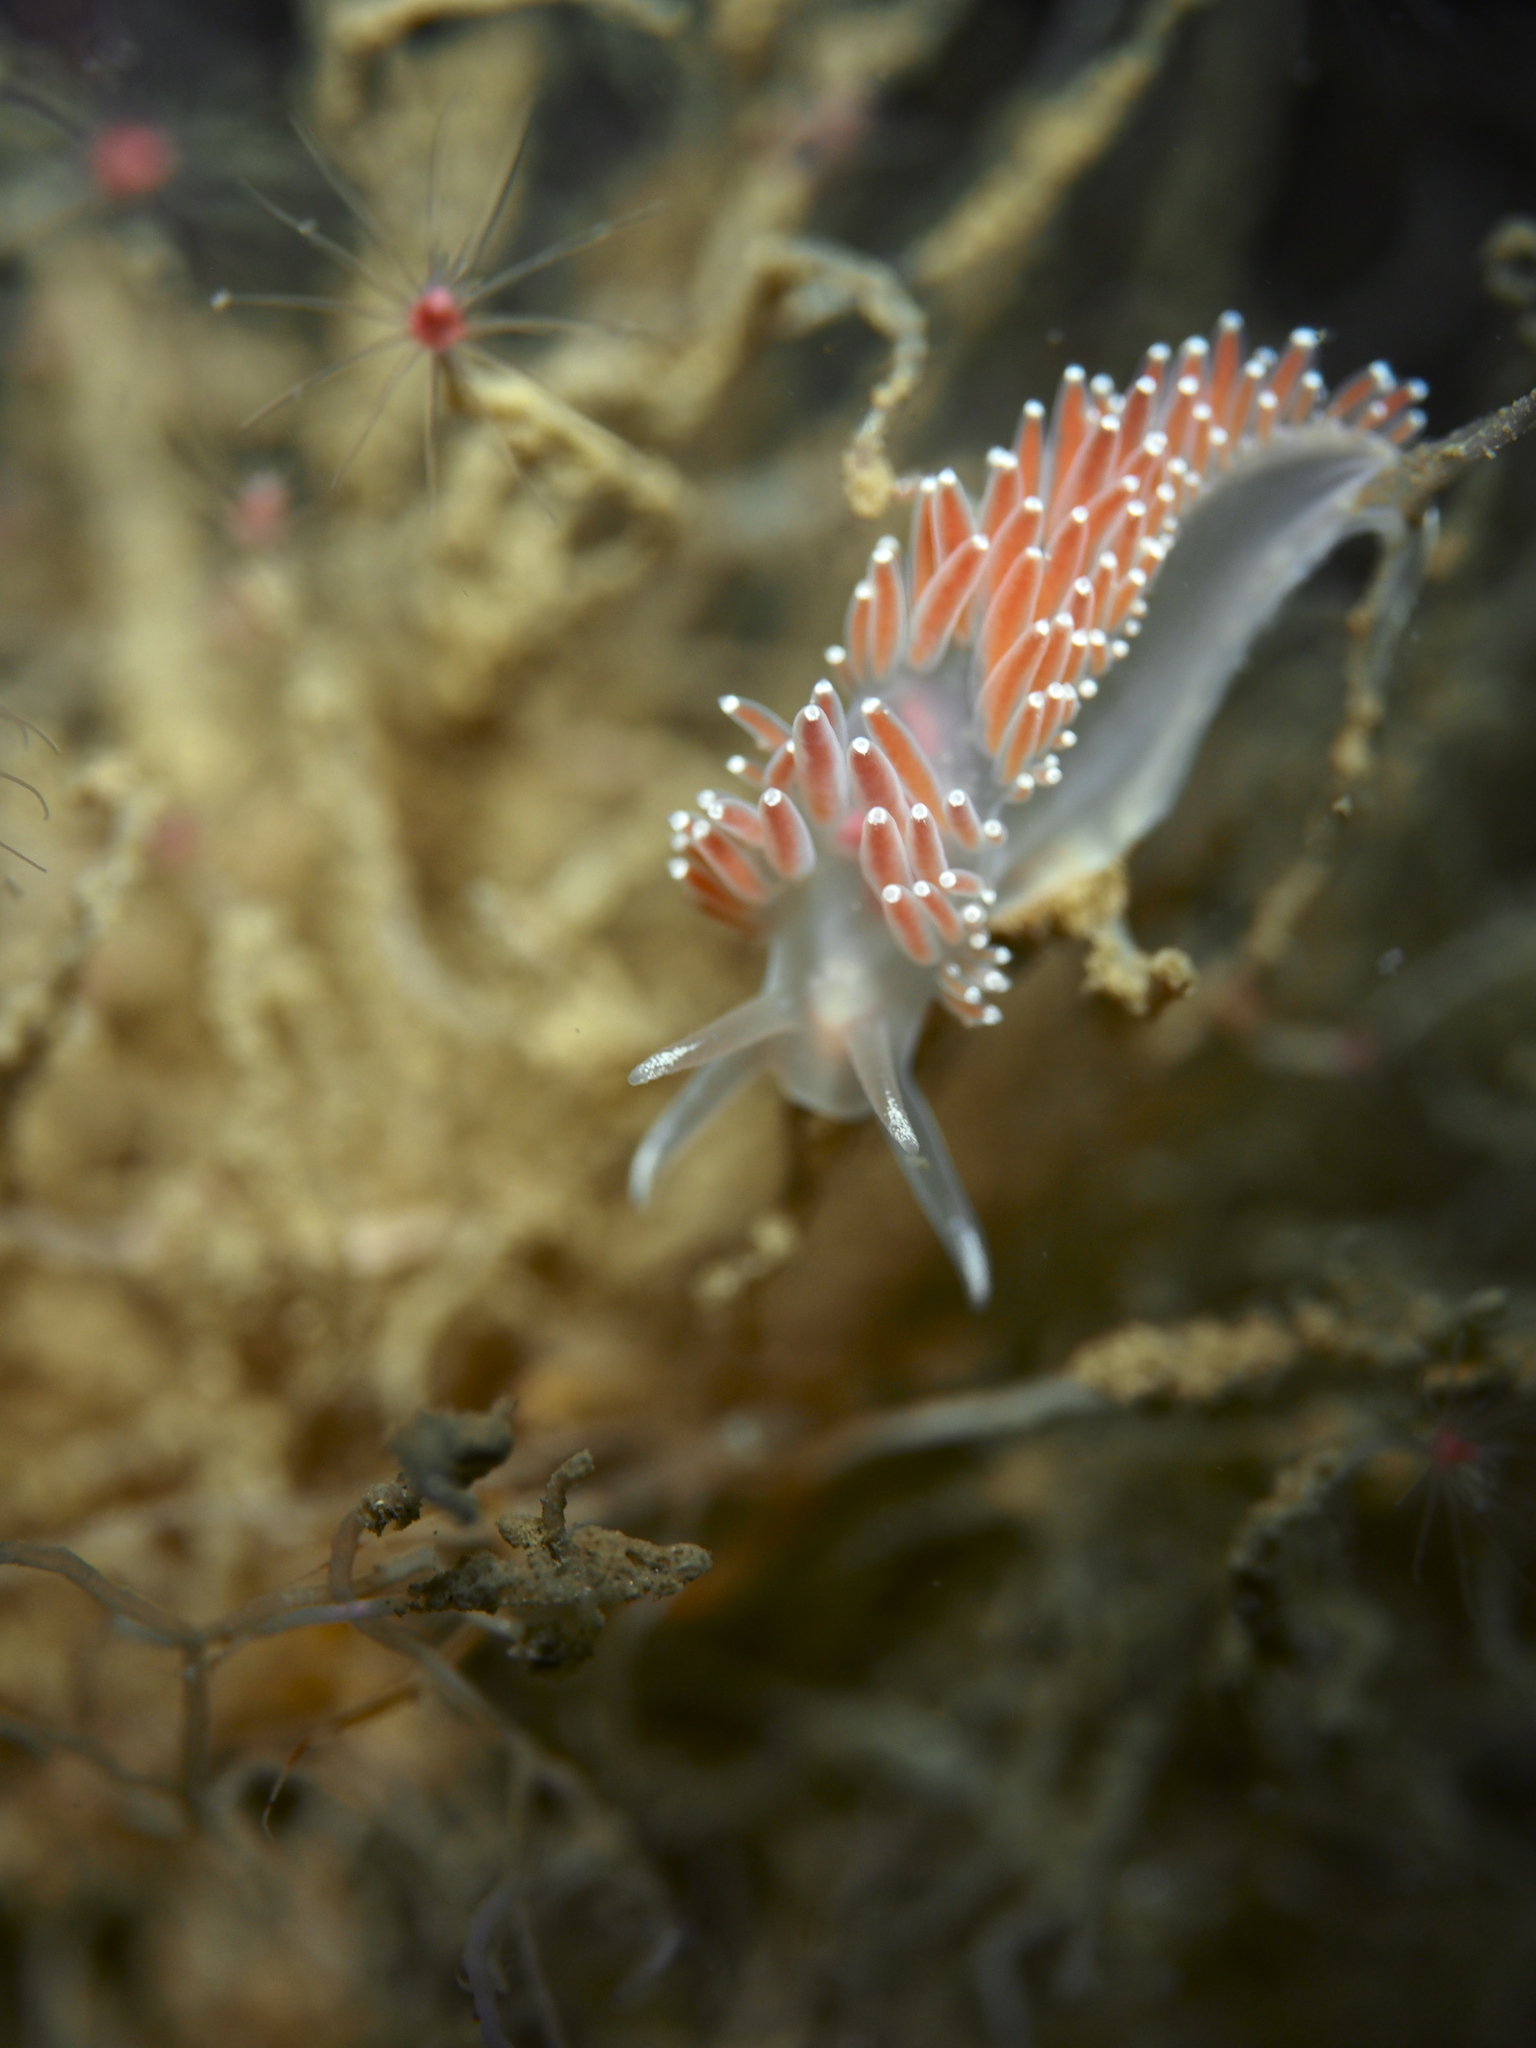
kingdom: Animalia
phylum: Mollusca
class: Gastropoda
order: Nudibranchia
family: Coryphellidae
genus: Coryphella
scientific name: Coryphella verrucosa
